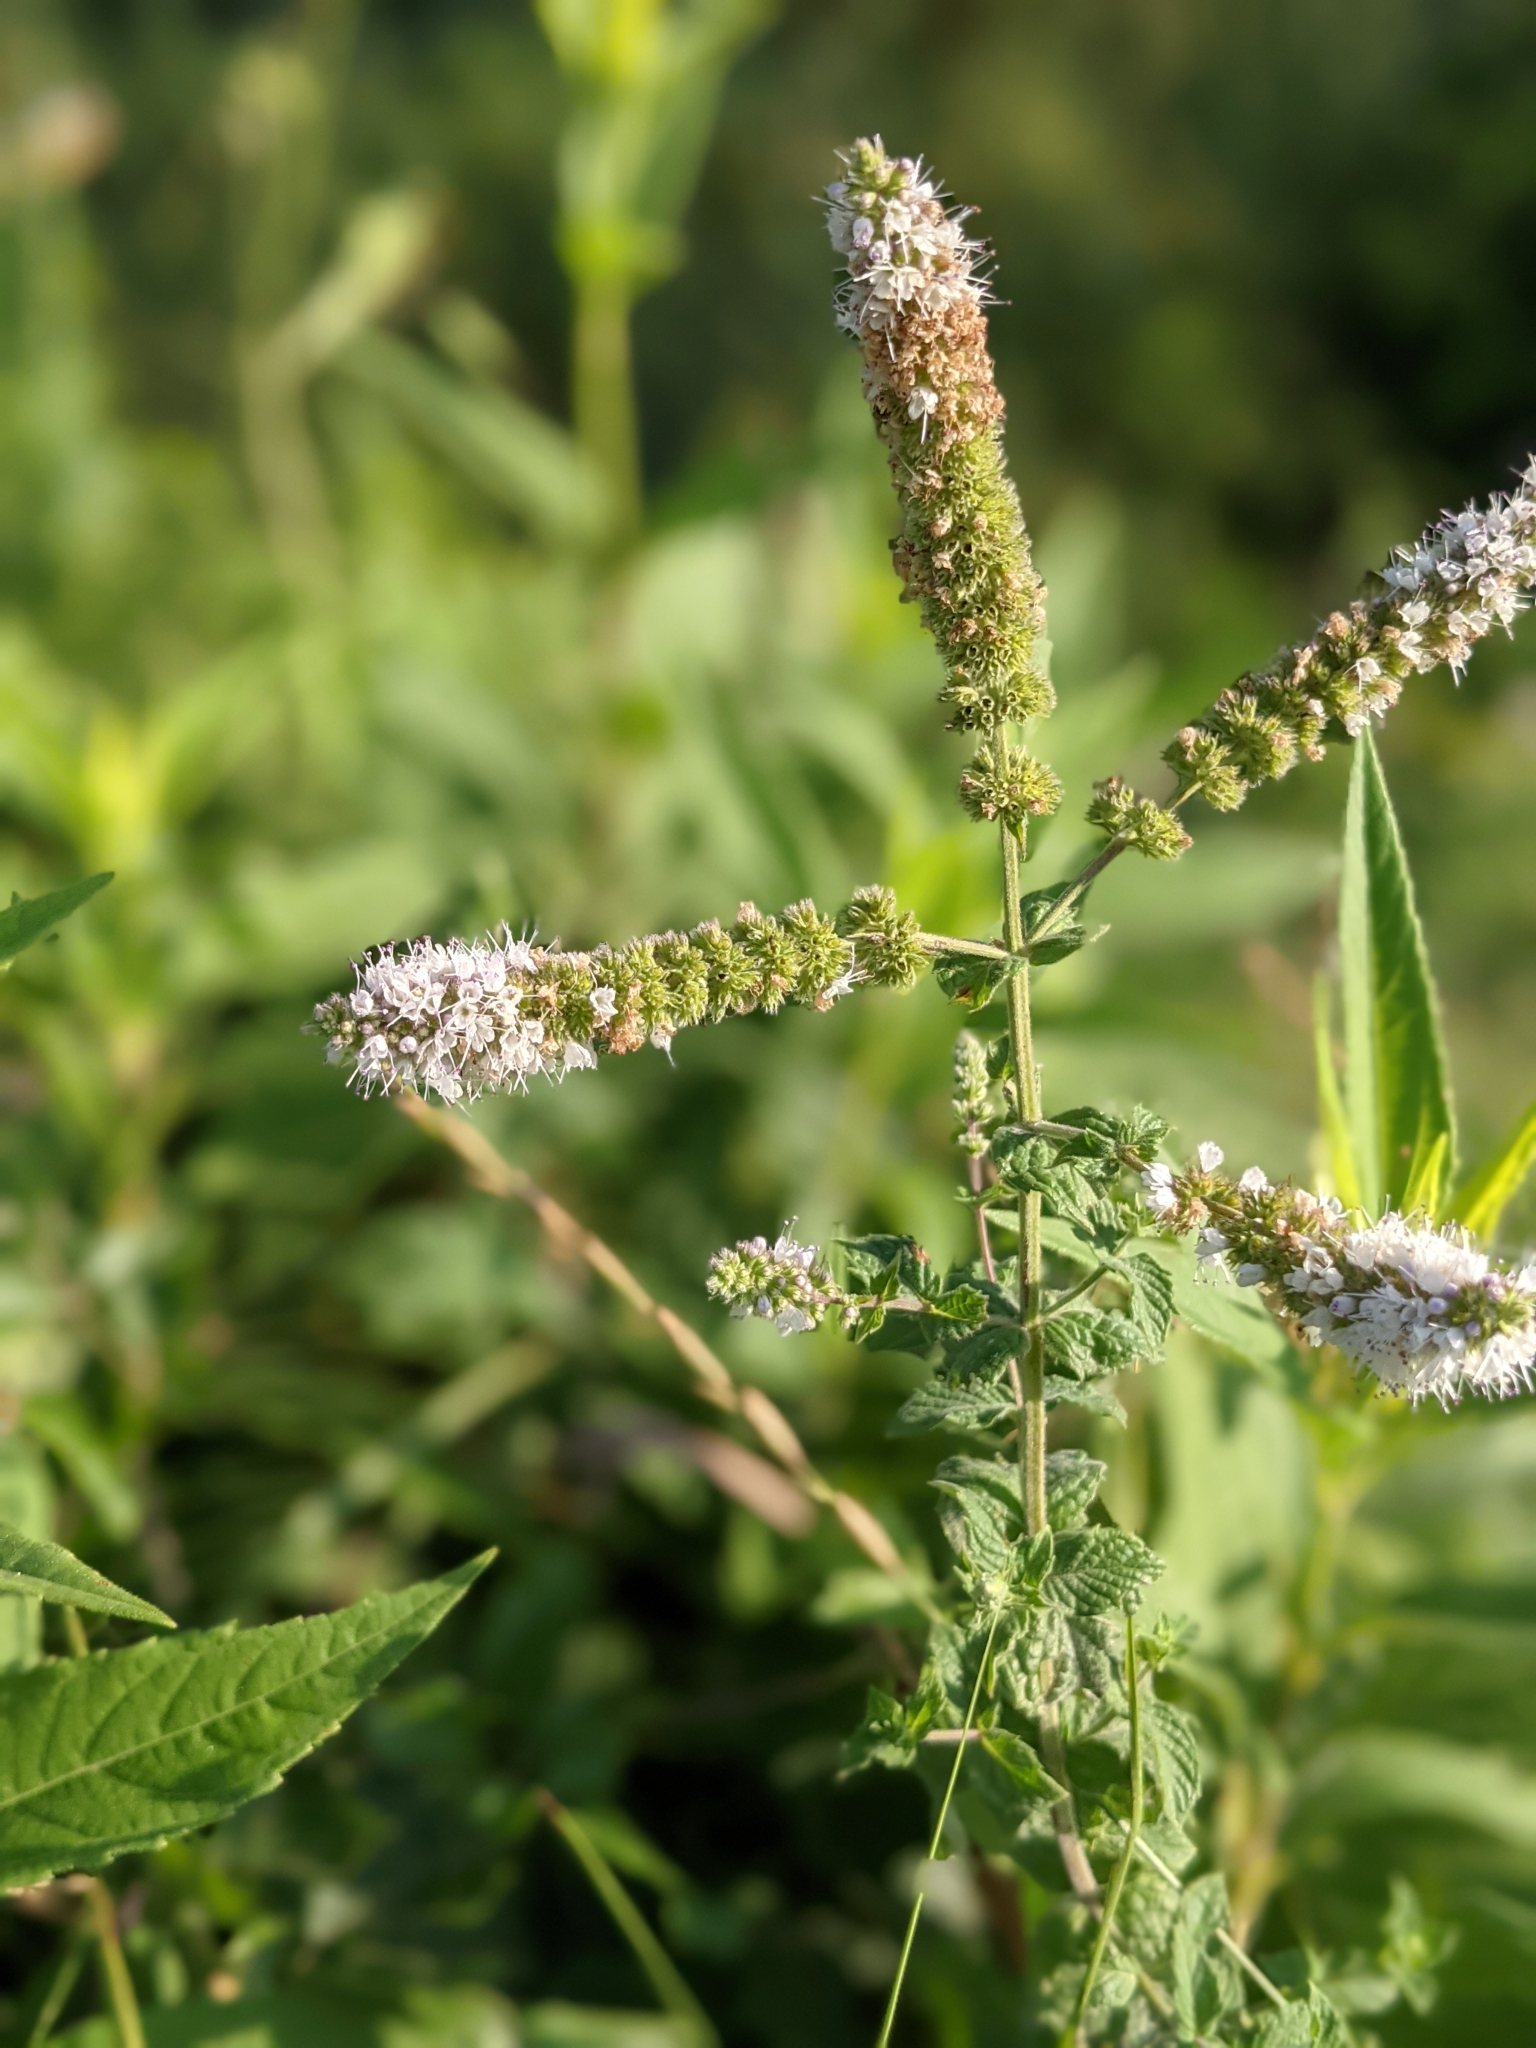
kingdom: Plantae
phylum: Tracheophyta
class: Magnoliopsida
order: Lamiales
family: Lamiaceae
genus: Mentha
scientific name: Mentha suaveolens
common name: Apple mint
